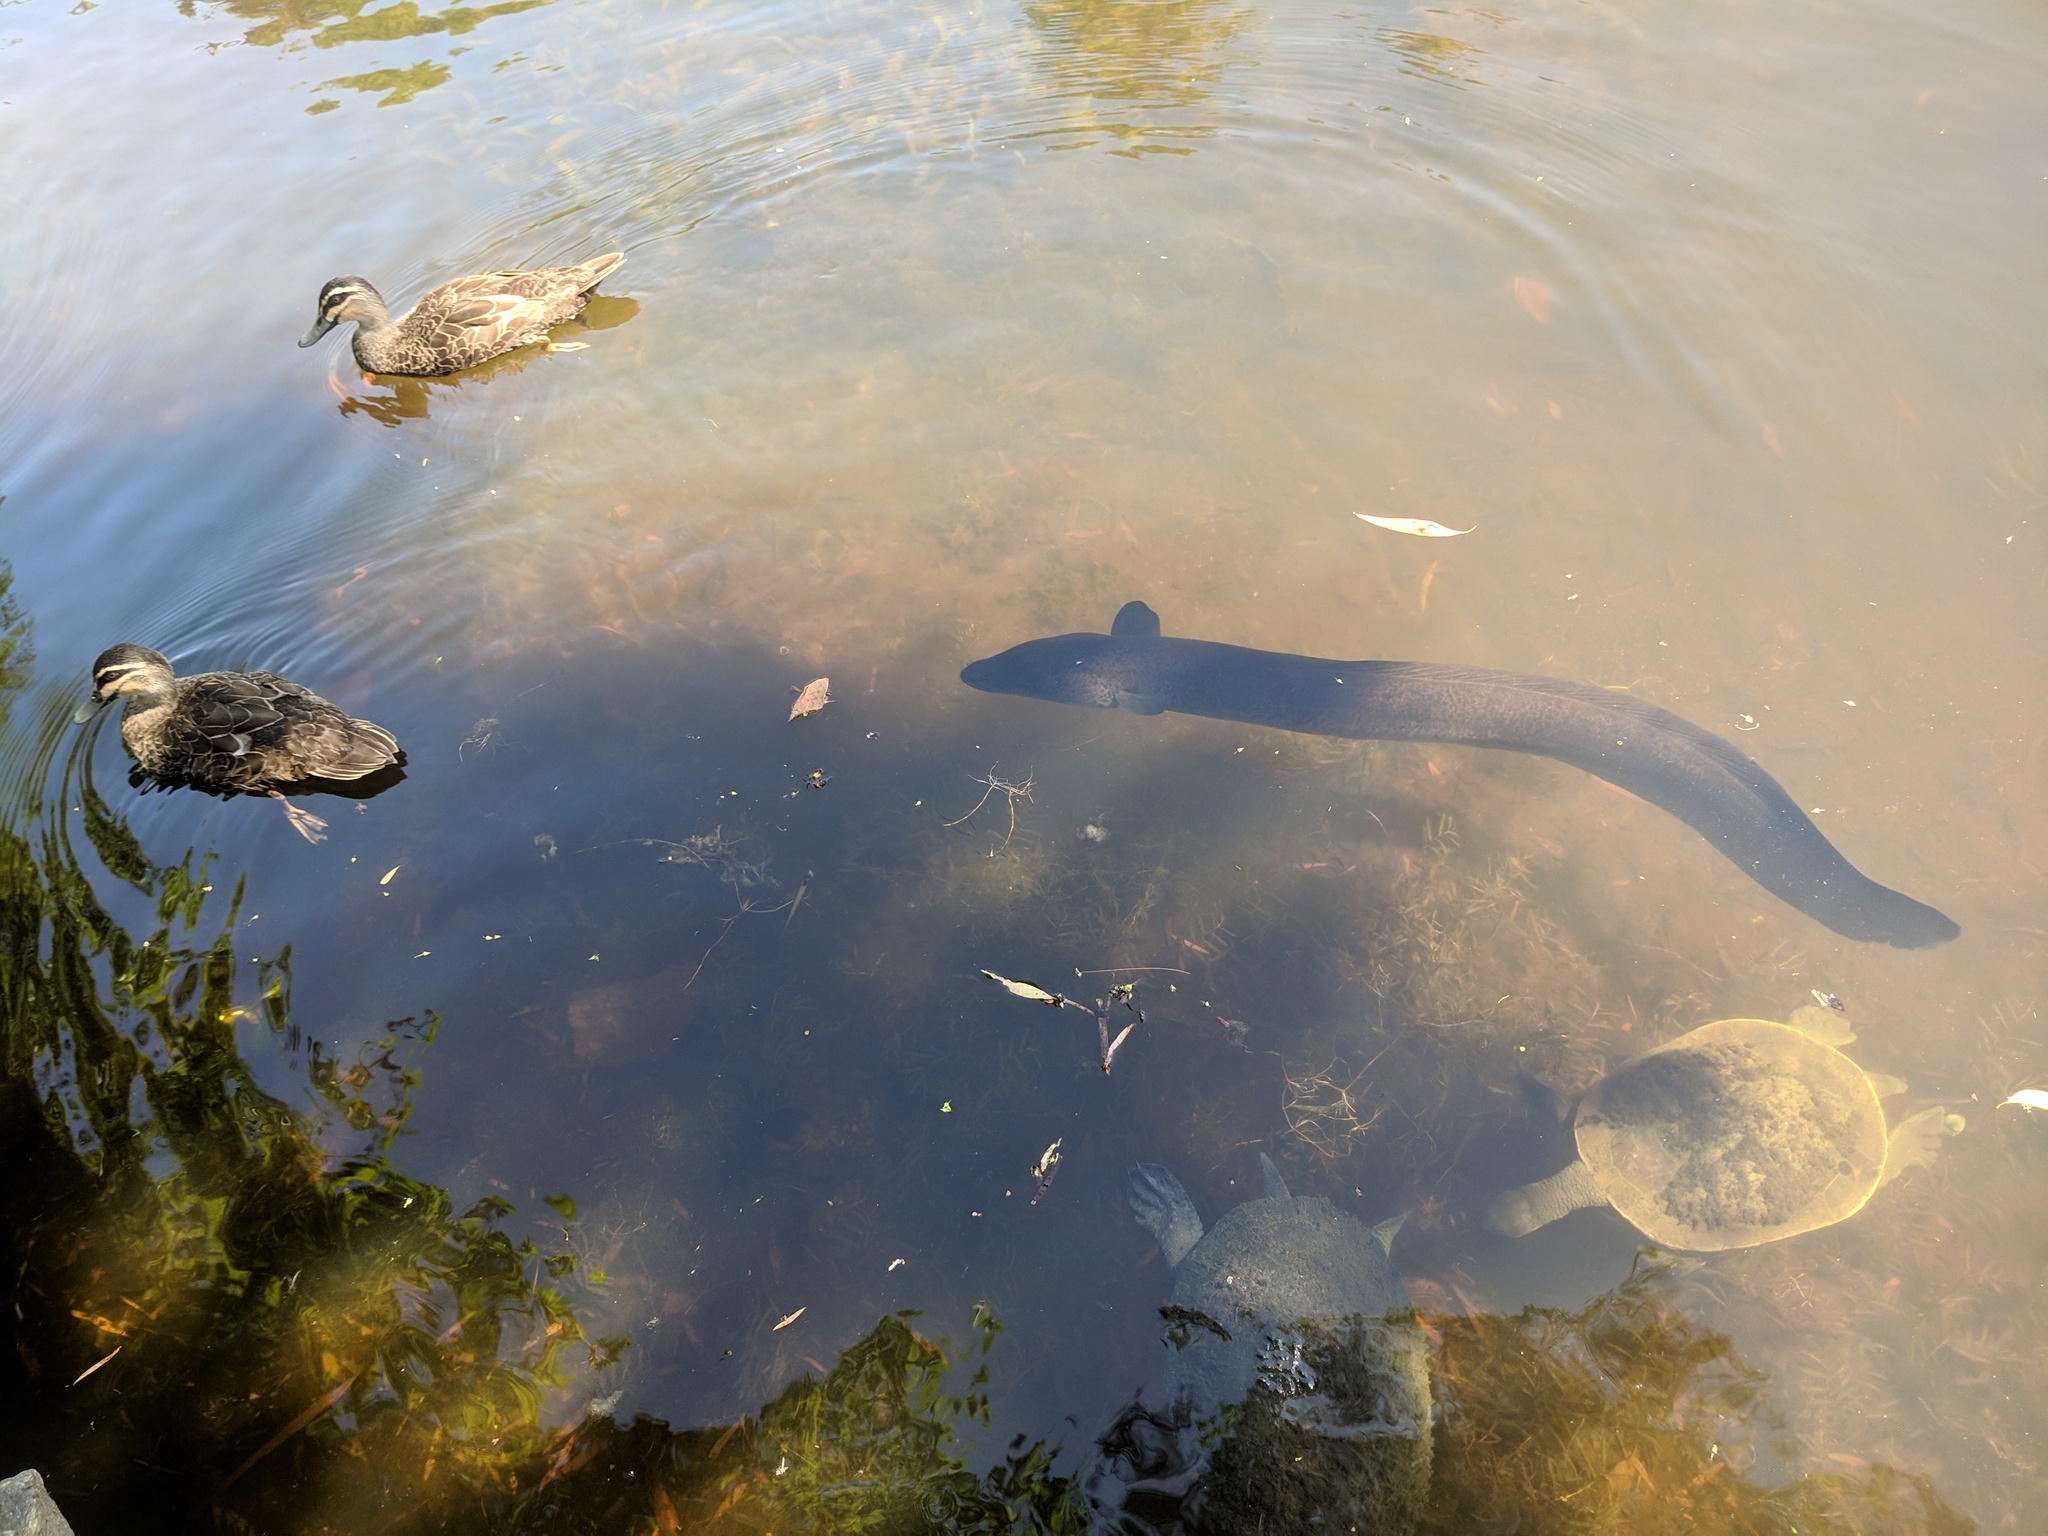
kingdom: Animalia
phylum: Chordata
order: Anguilliformes
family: Anguillidae
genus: Anguilla
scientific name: Anguilla reinhardtii
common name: Longfin eel
